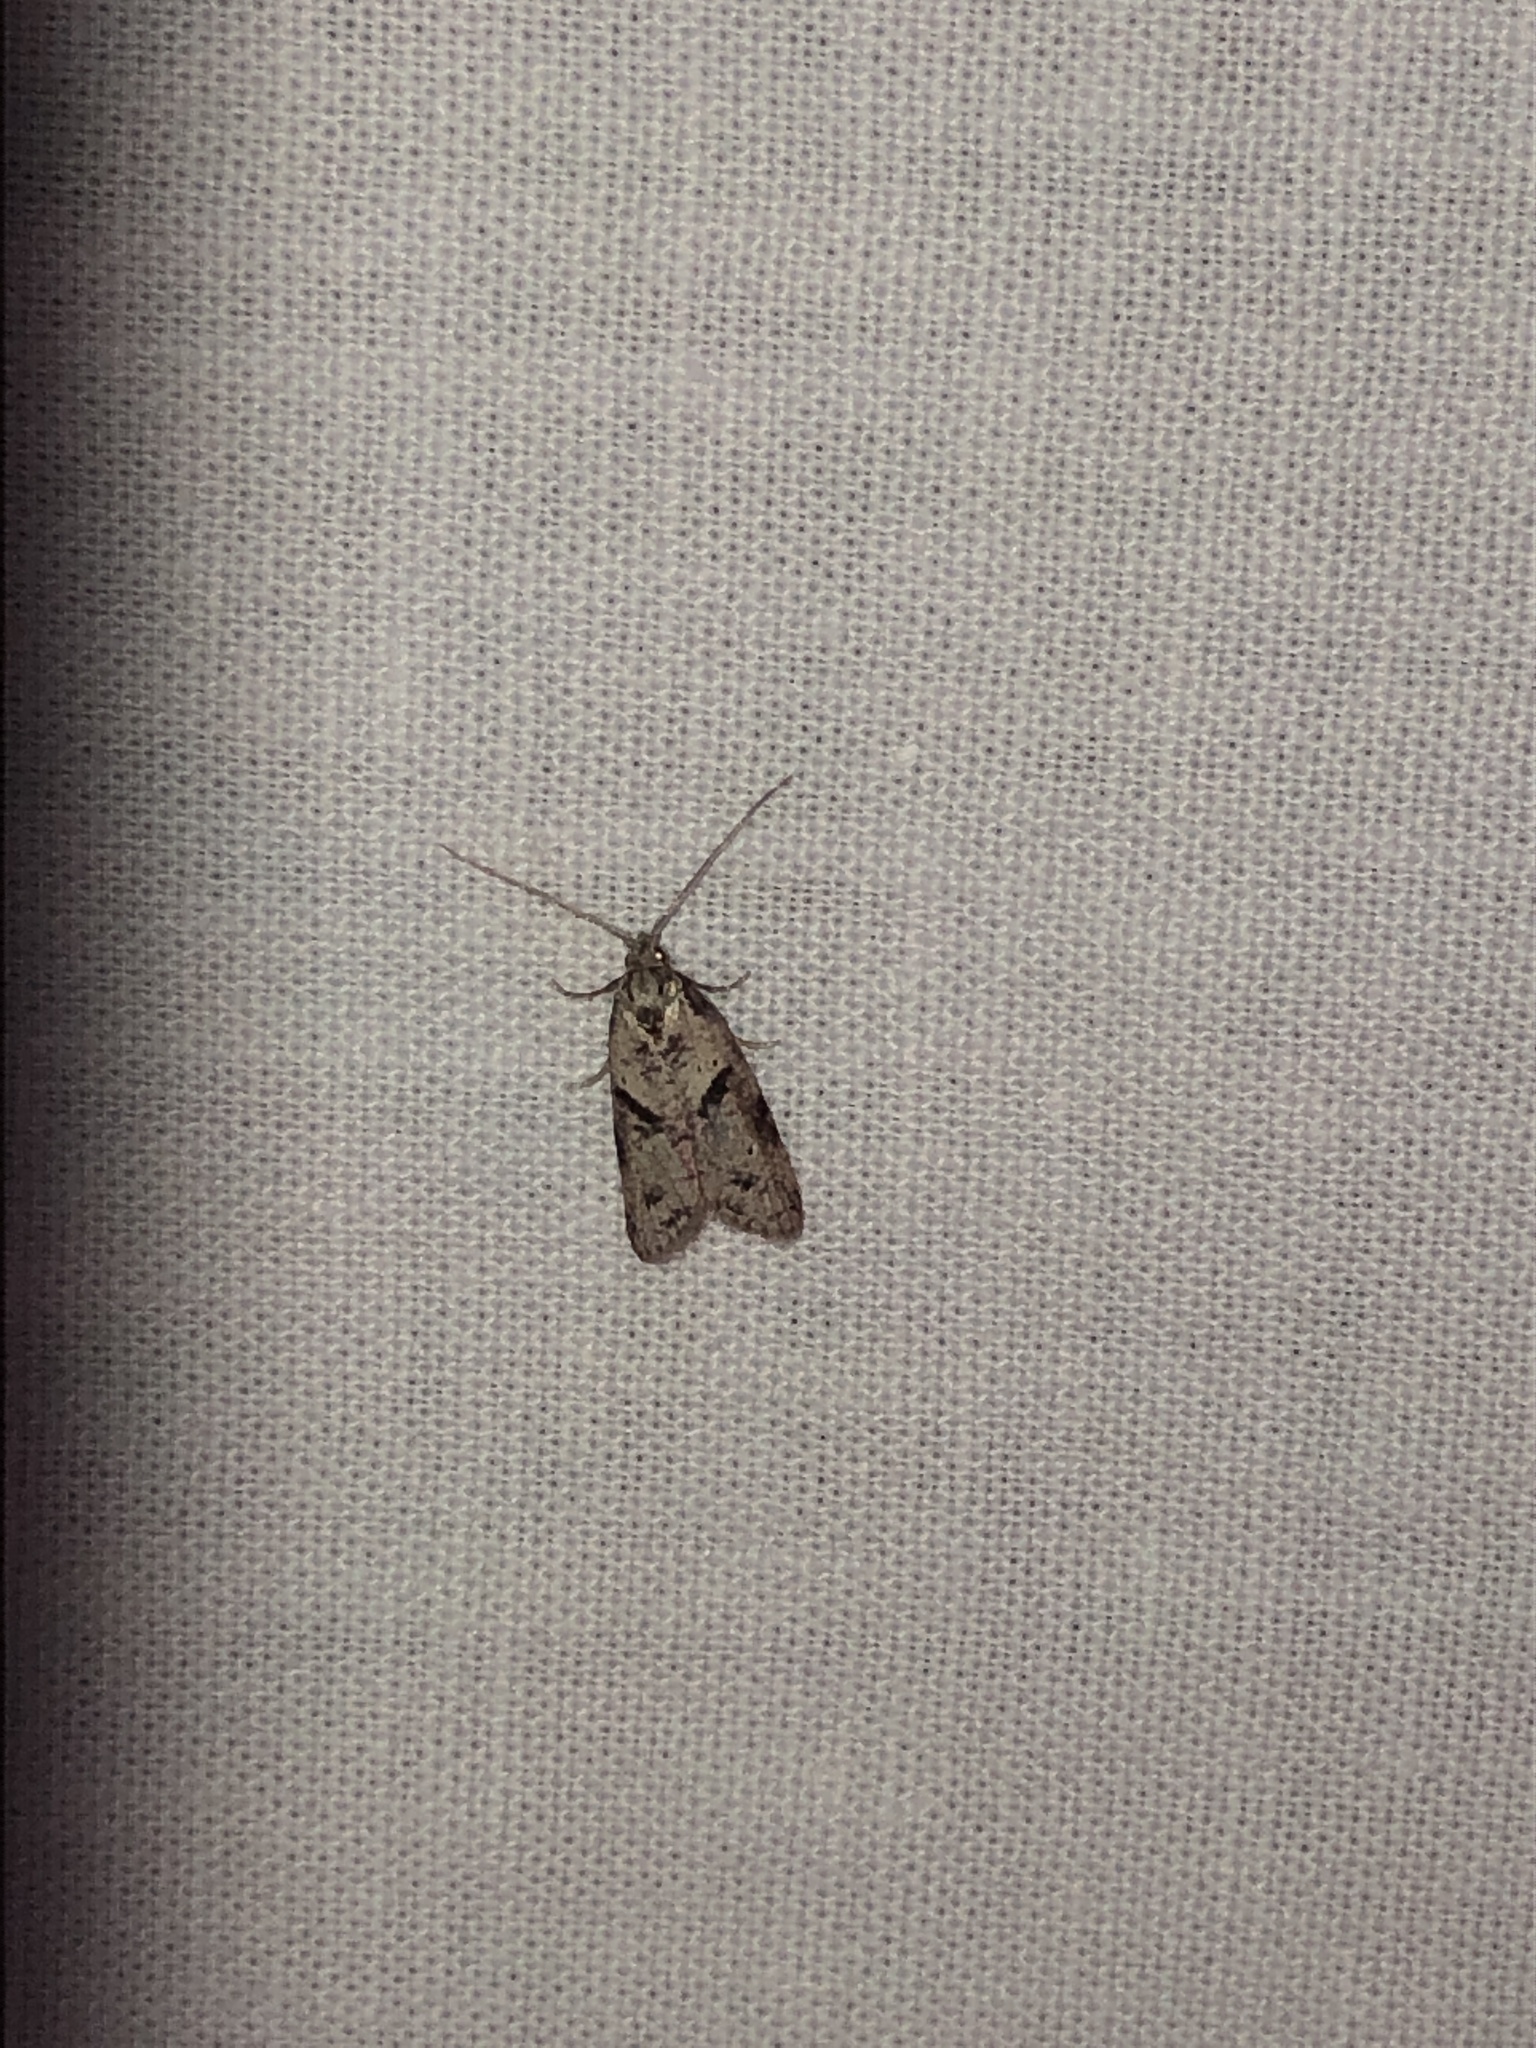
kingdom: Animalia
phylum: Arthropoda
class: Insecta
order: Lepidoptera
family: Copromorphidae
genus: Lotisma
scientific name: Lotisma trigonana
